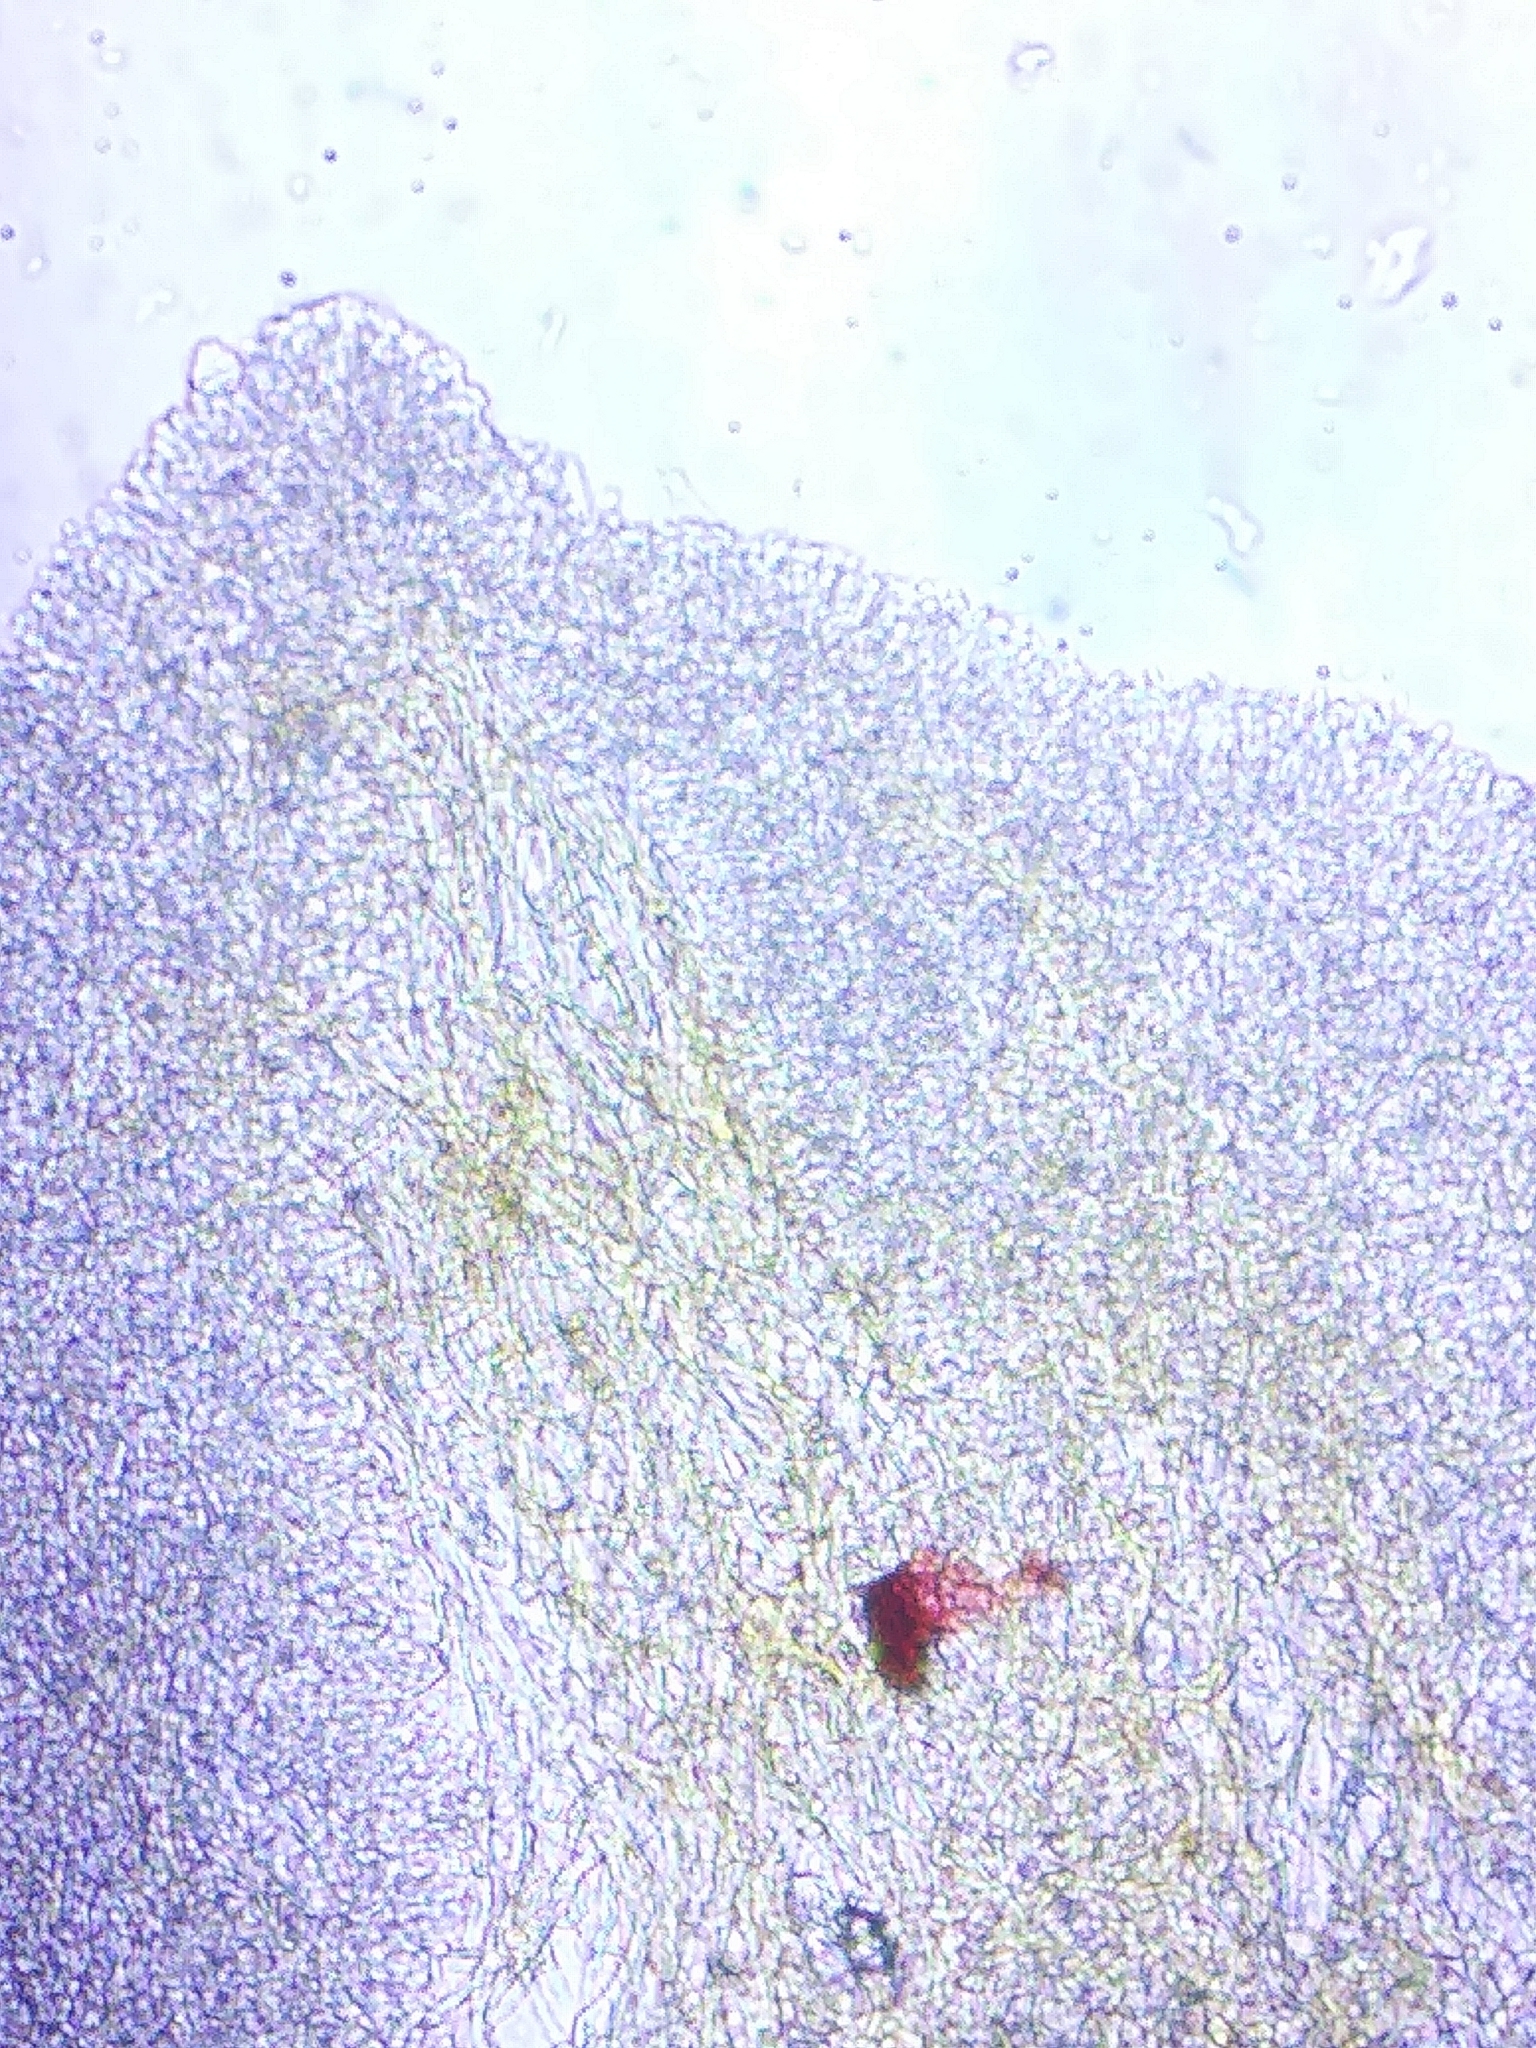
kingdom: Fungi
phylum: Basidiomycota
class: Agaricomycetes
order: Agaricales
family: Mycenaceae
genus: Xeromphalina
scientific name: Xeromphalina enigmatica
